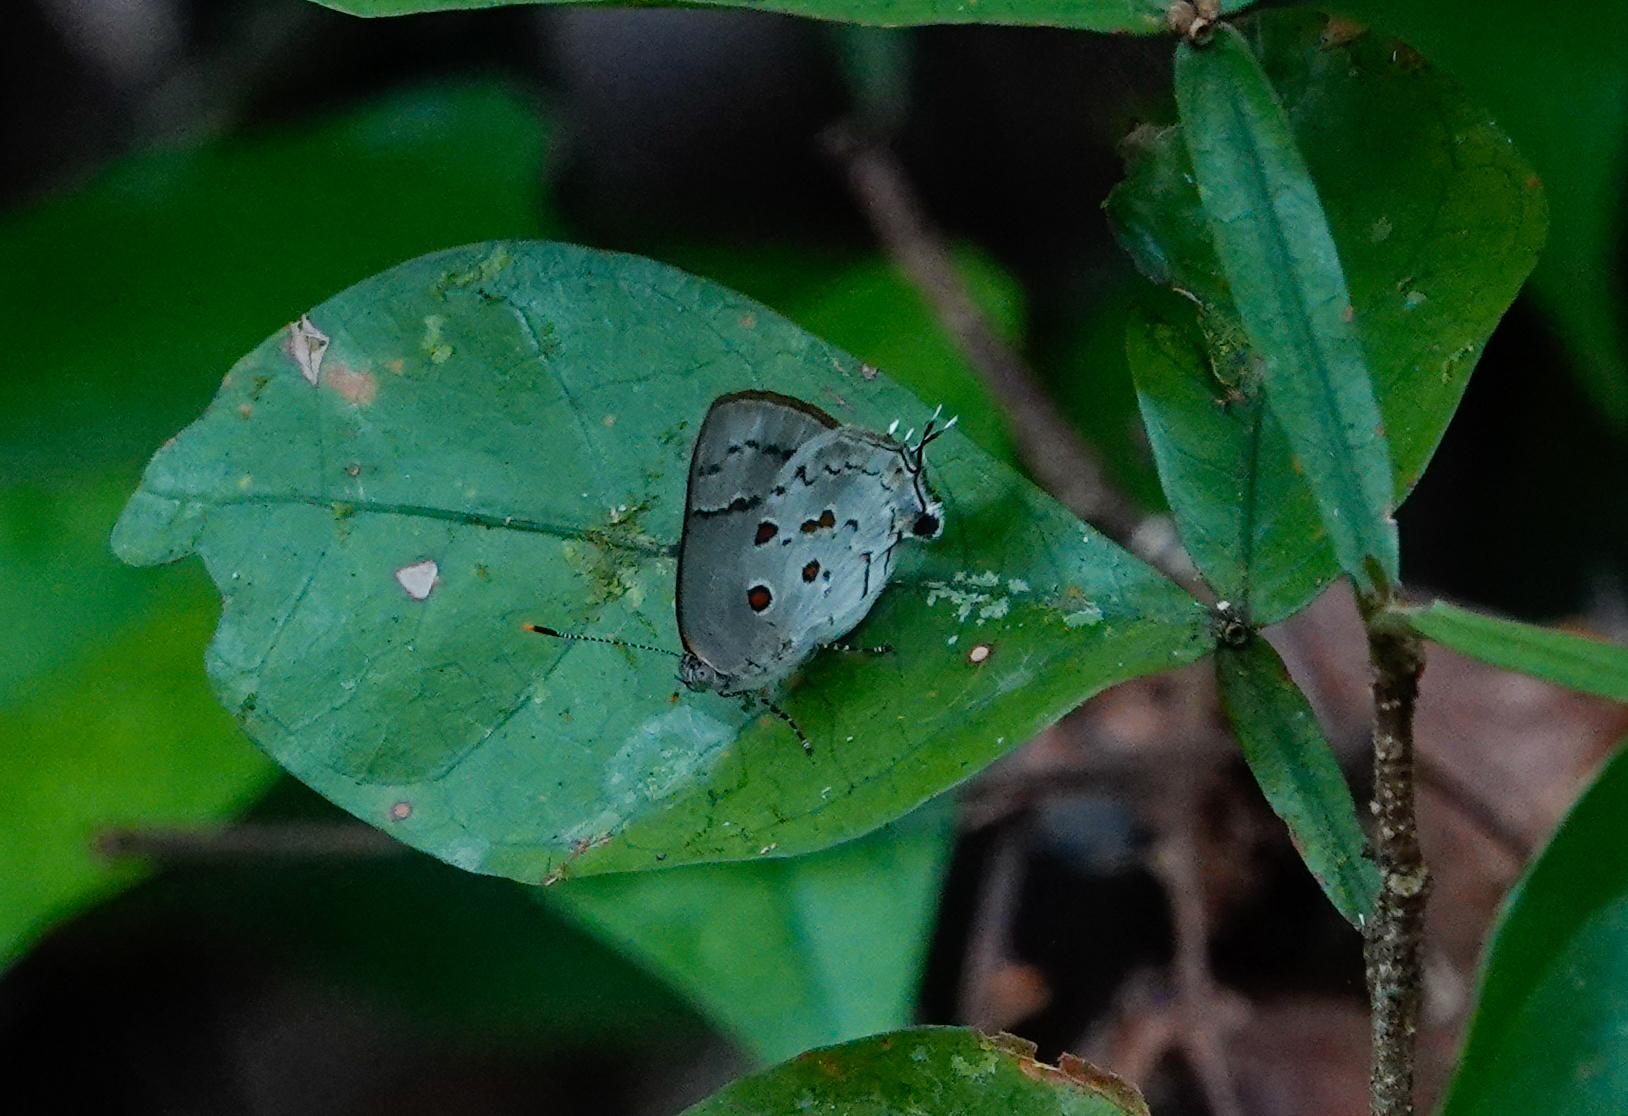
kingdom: Animalia
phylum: Arthropoda
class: Insecta
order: Lepidoptera
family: Lycaenidae
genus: Tmolus
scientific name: Tmolus echion
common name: Red-spotted hairstreak
